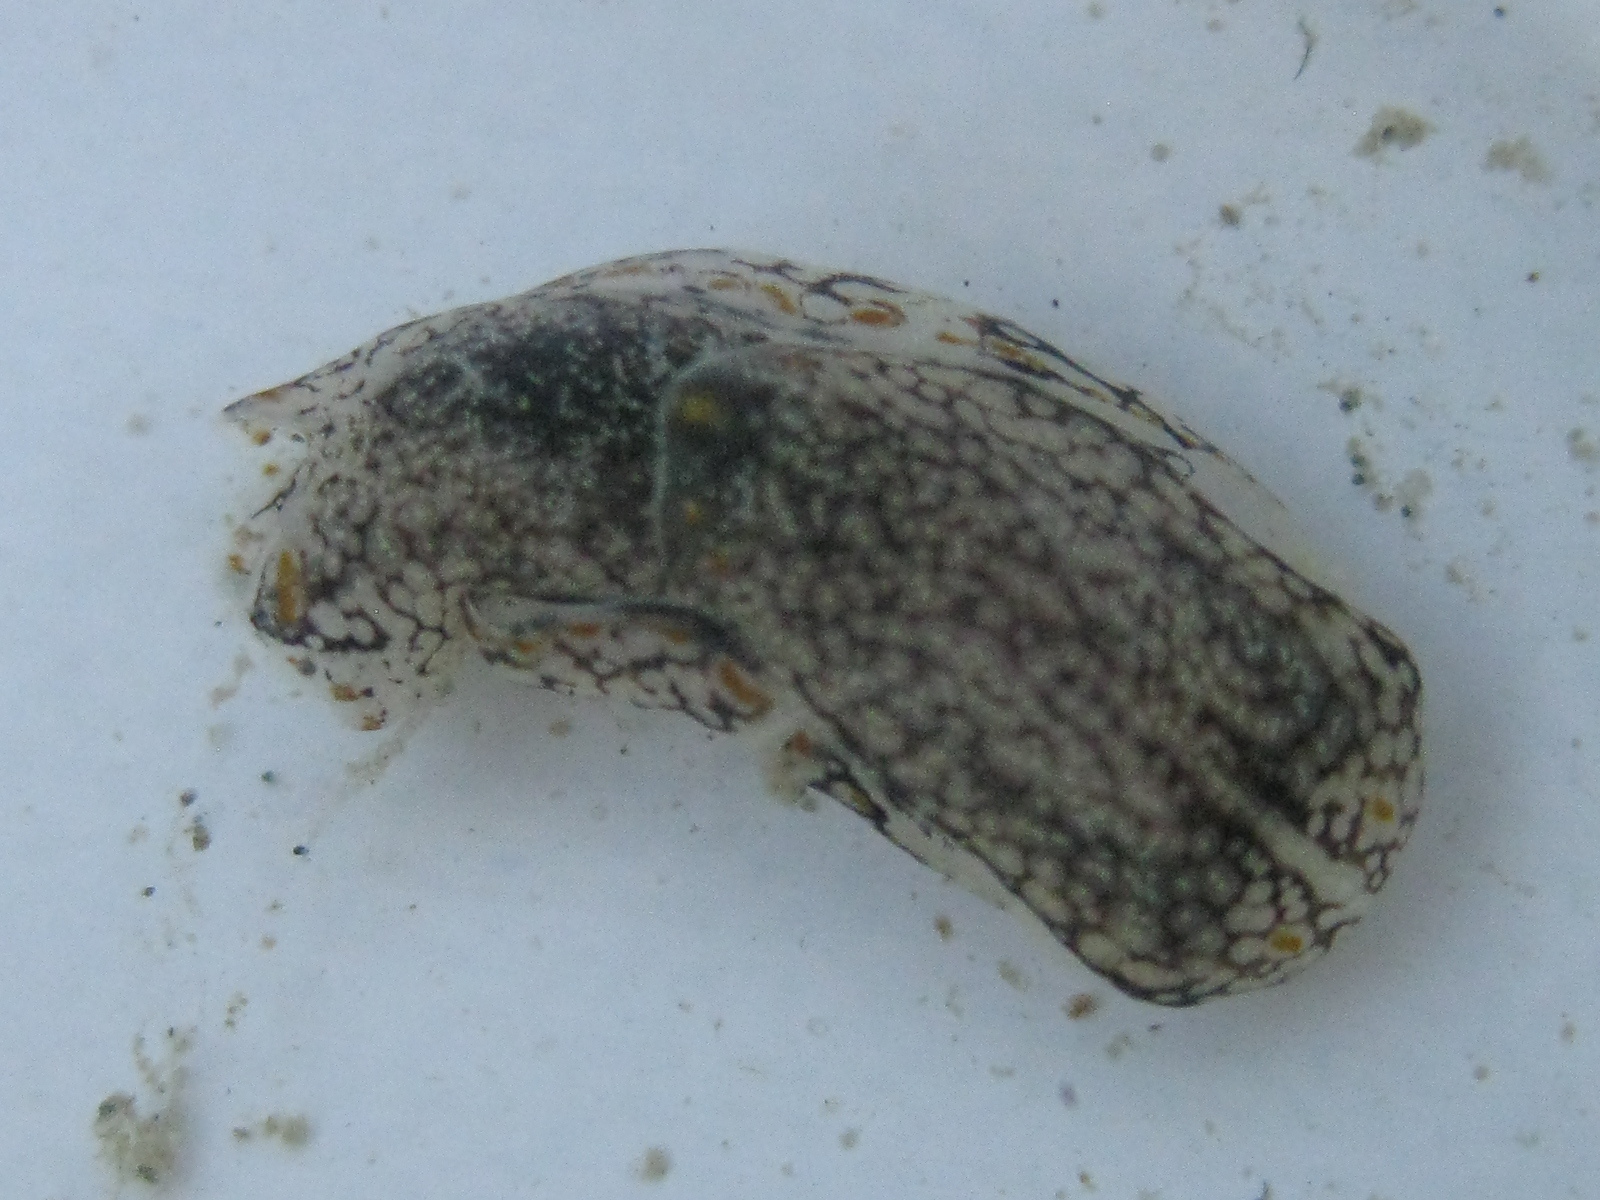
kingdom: Animalia
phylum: Mollusca
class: Gastropoda
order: Cephalaspidea
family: Aglajidae
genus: Philinopsis
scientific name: Philinopsis taronga
